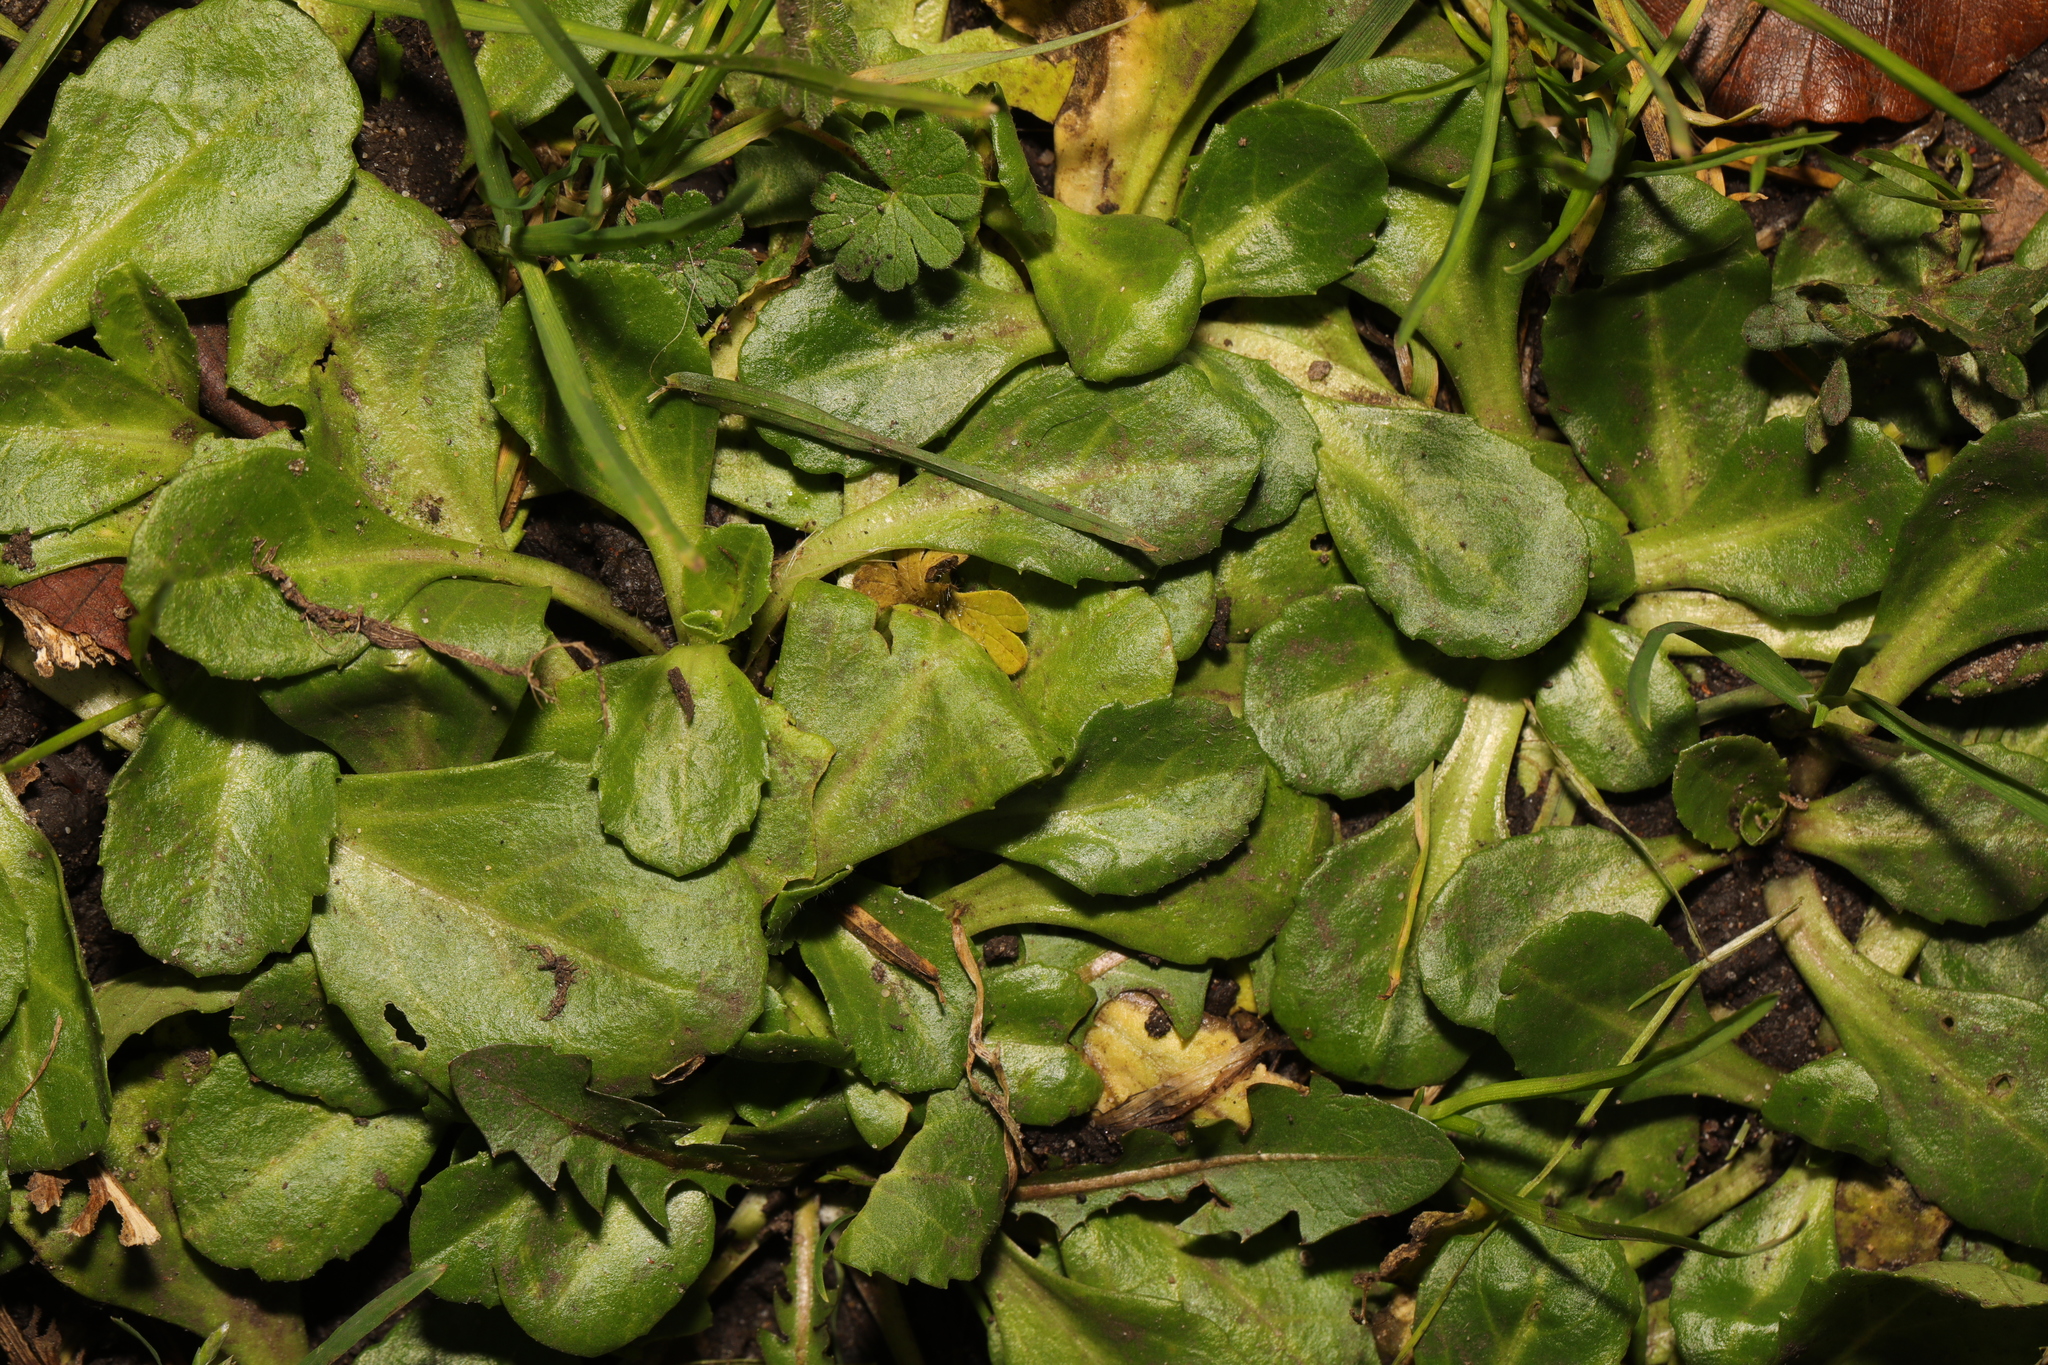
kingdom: Plantae
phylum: Tracheophyta
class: Magnoliopsida
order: Asterales
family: Asteraceae
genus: Bellis
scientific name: Bellis perennis
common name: Lawndaisy
